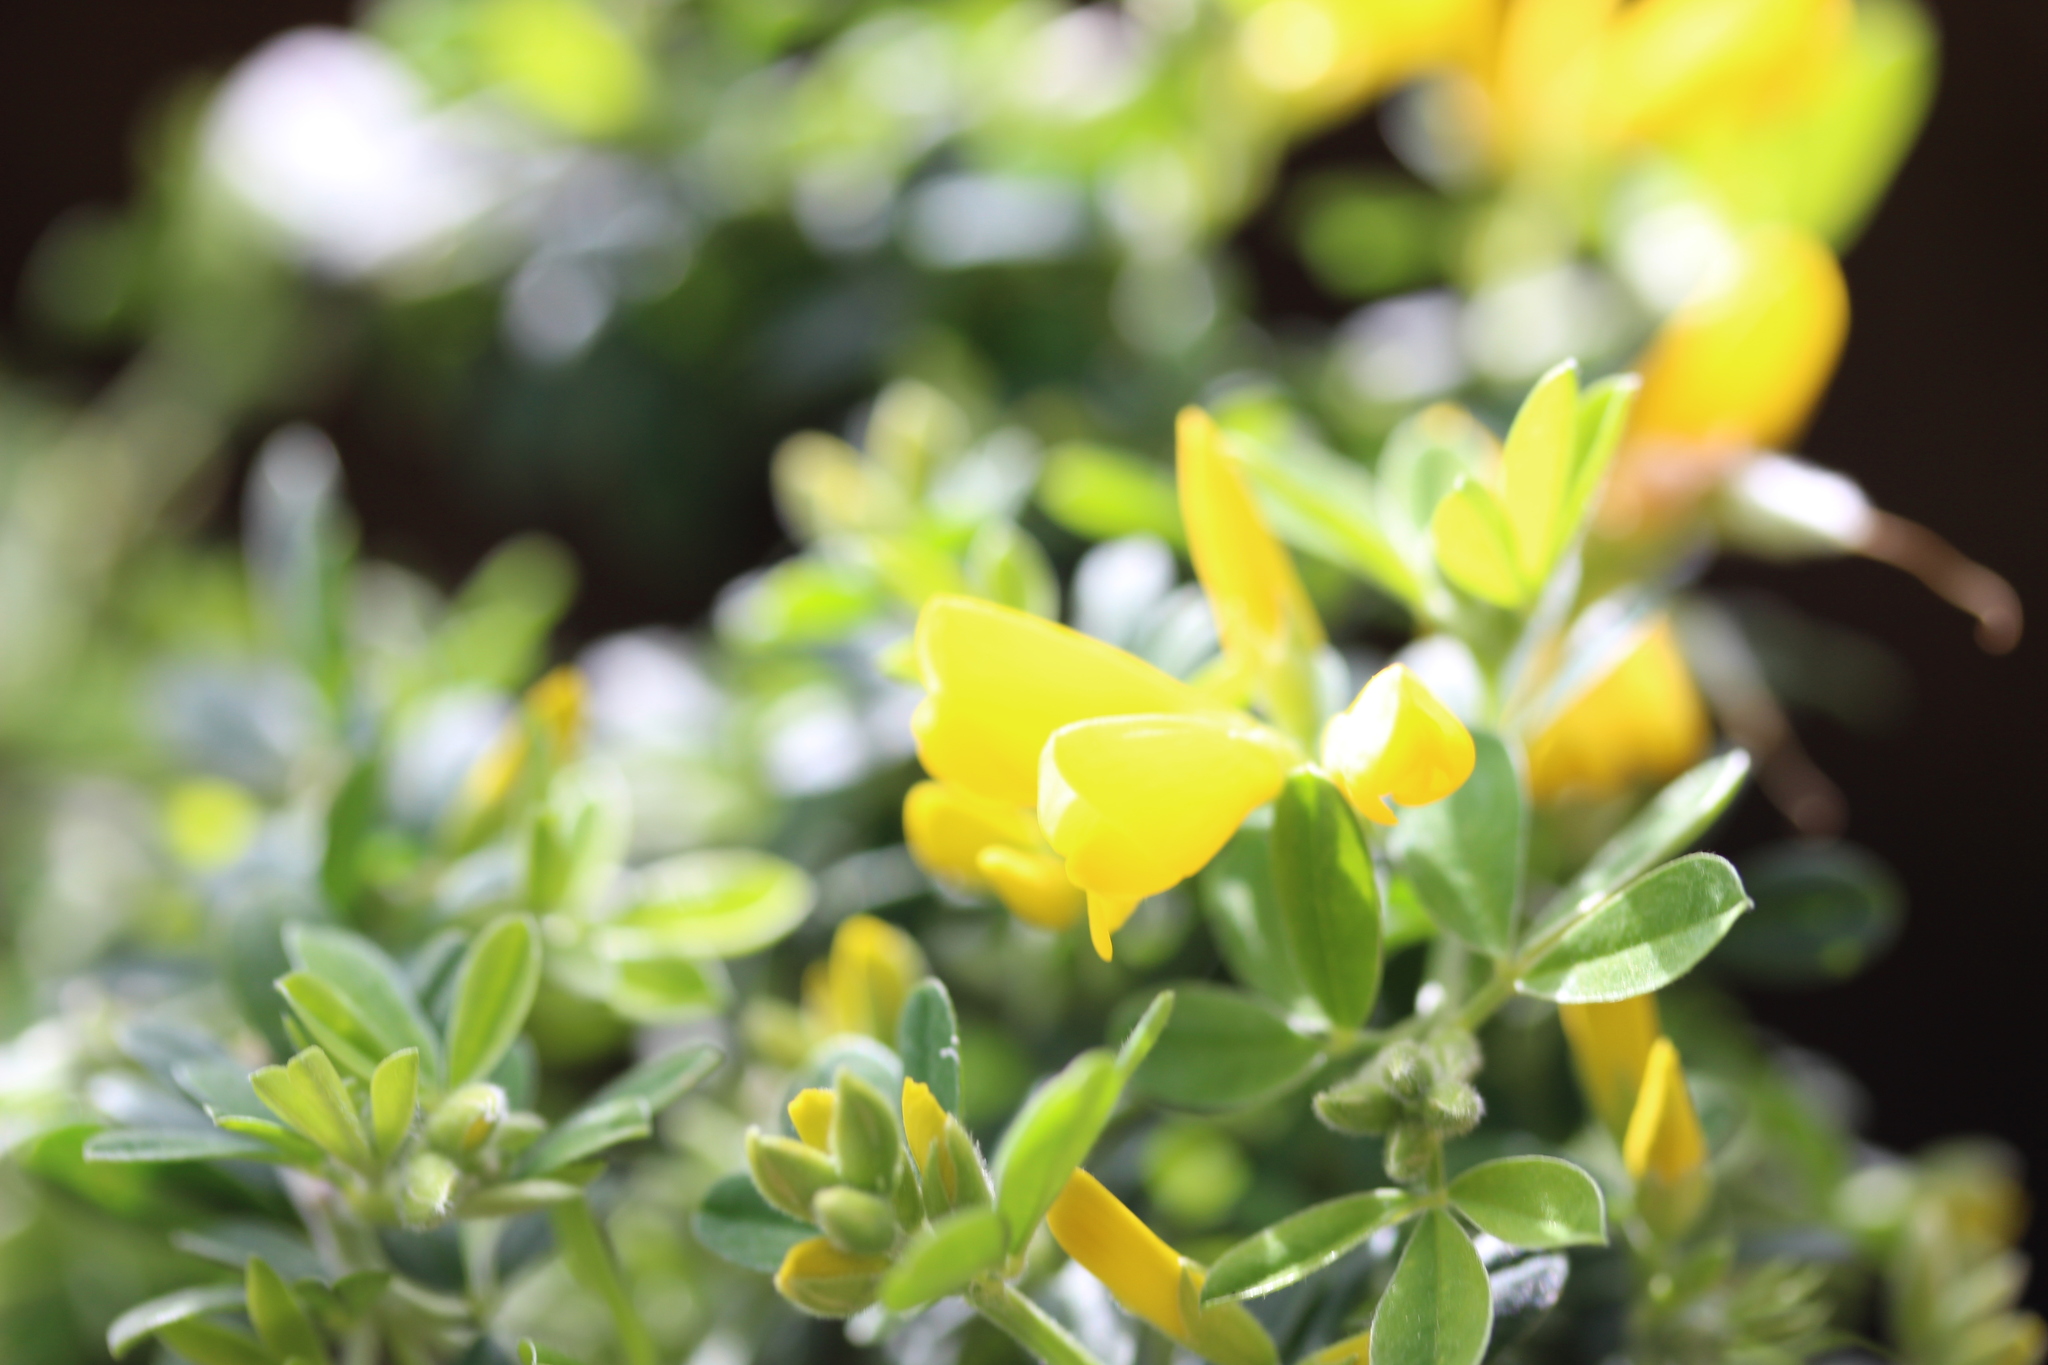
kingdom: Plantae
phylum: Tracheophyta
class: Magnoliopsida
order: Fabales
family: Fabaceae
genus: Genista
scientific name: Genista monspessulana
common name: Montpellier broom
